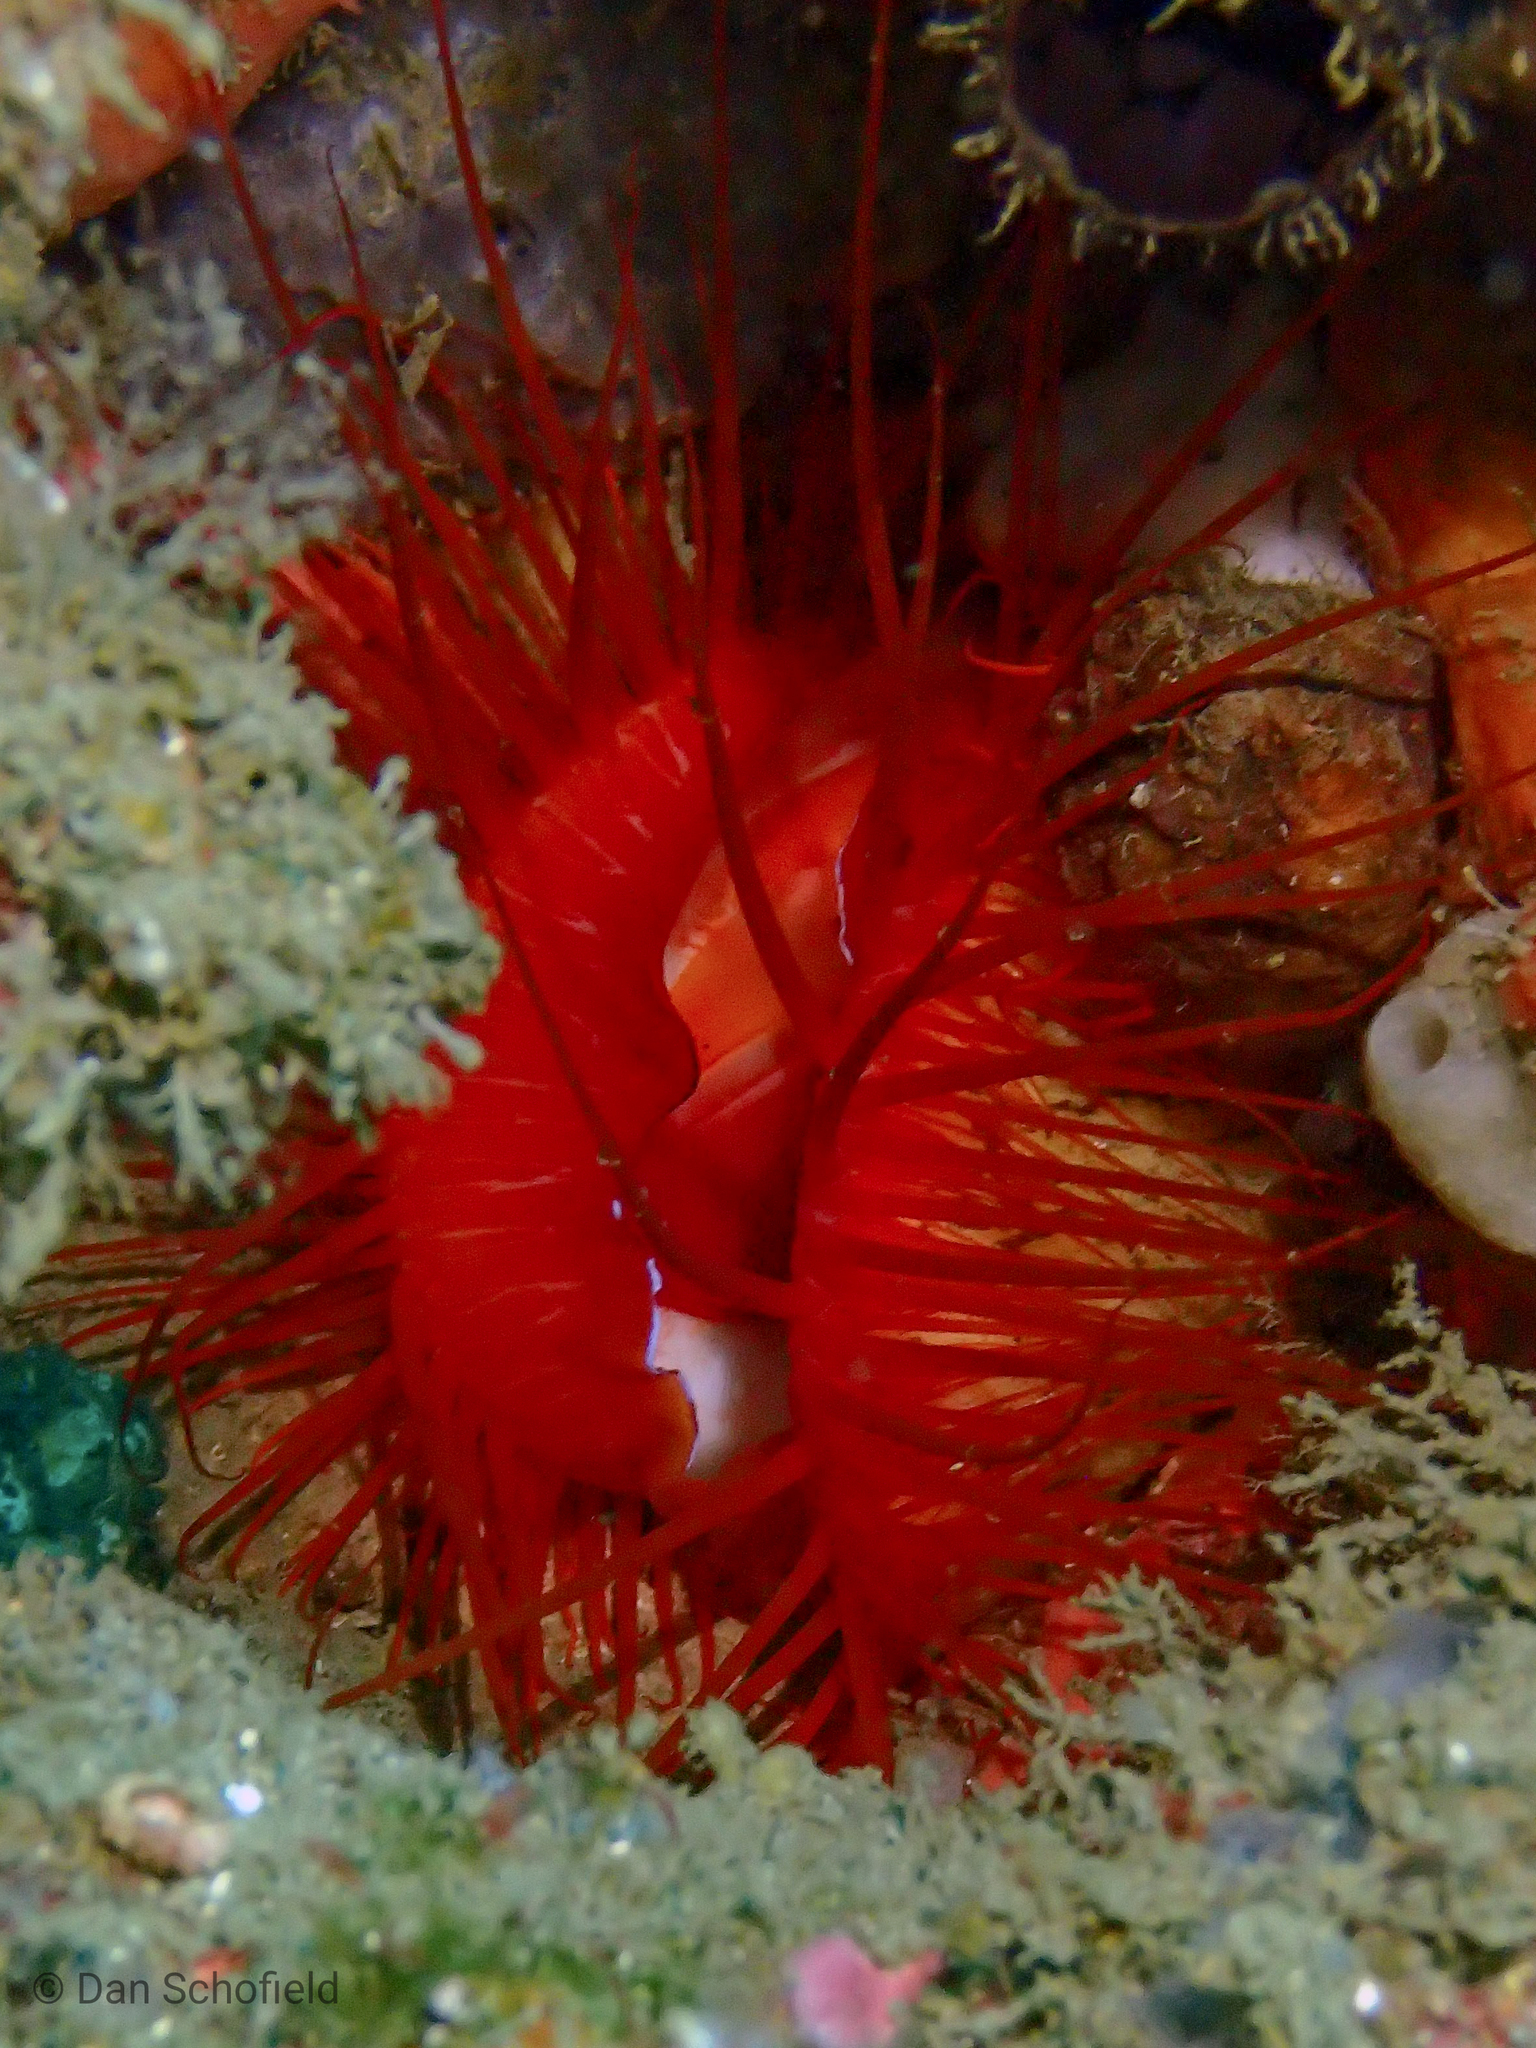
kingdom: Animalia
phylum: Mollusca
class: Bivalvia
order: Limida
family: Limidae
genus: Ctenoides
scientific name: Ctenoides ales
